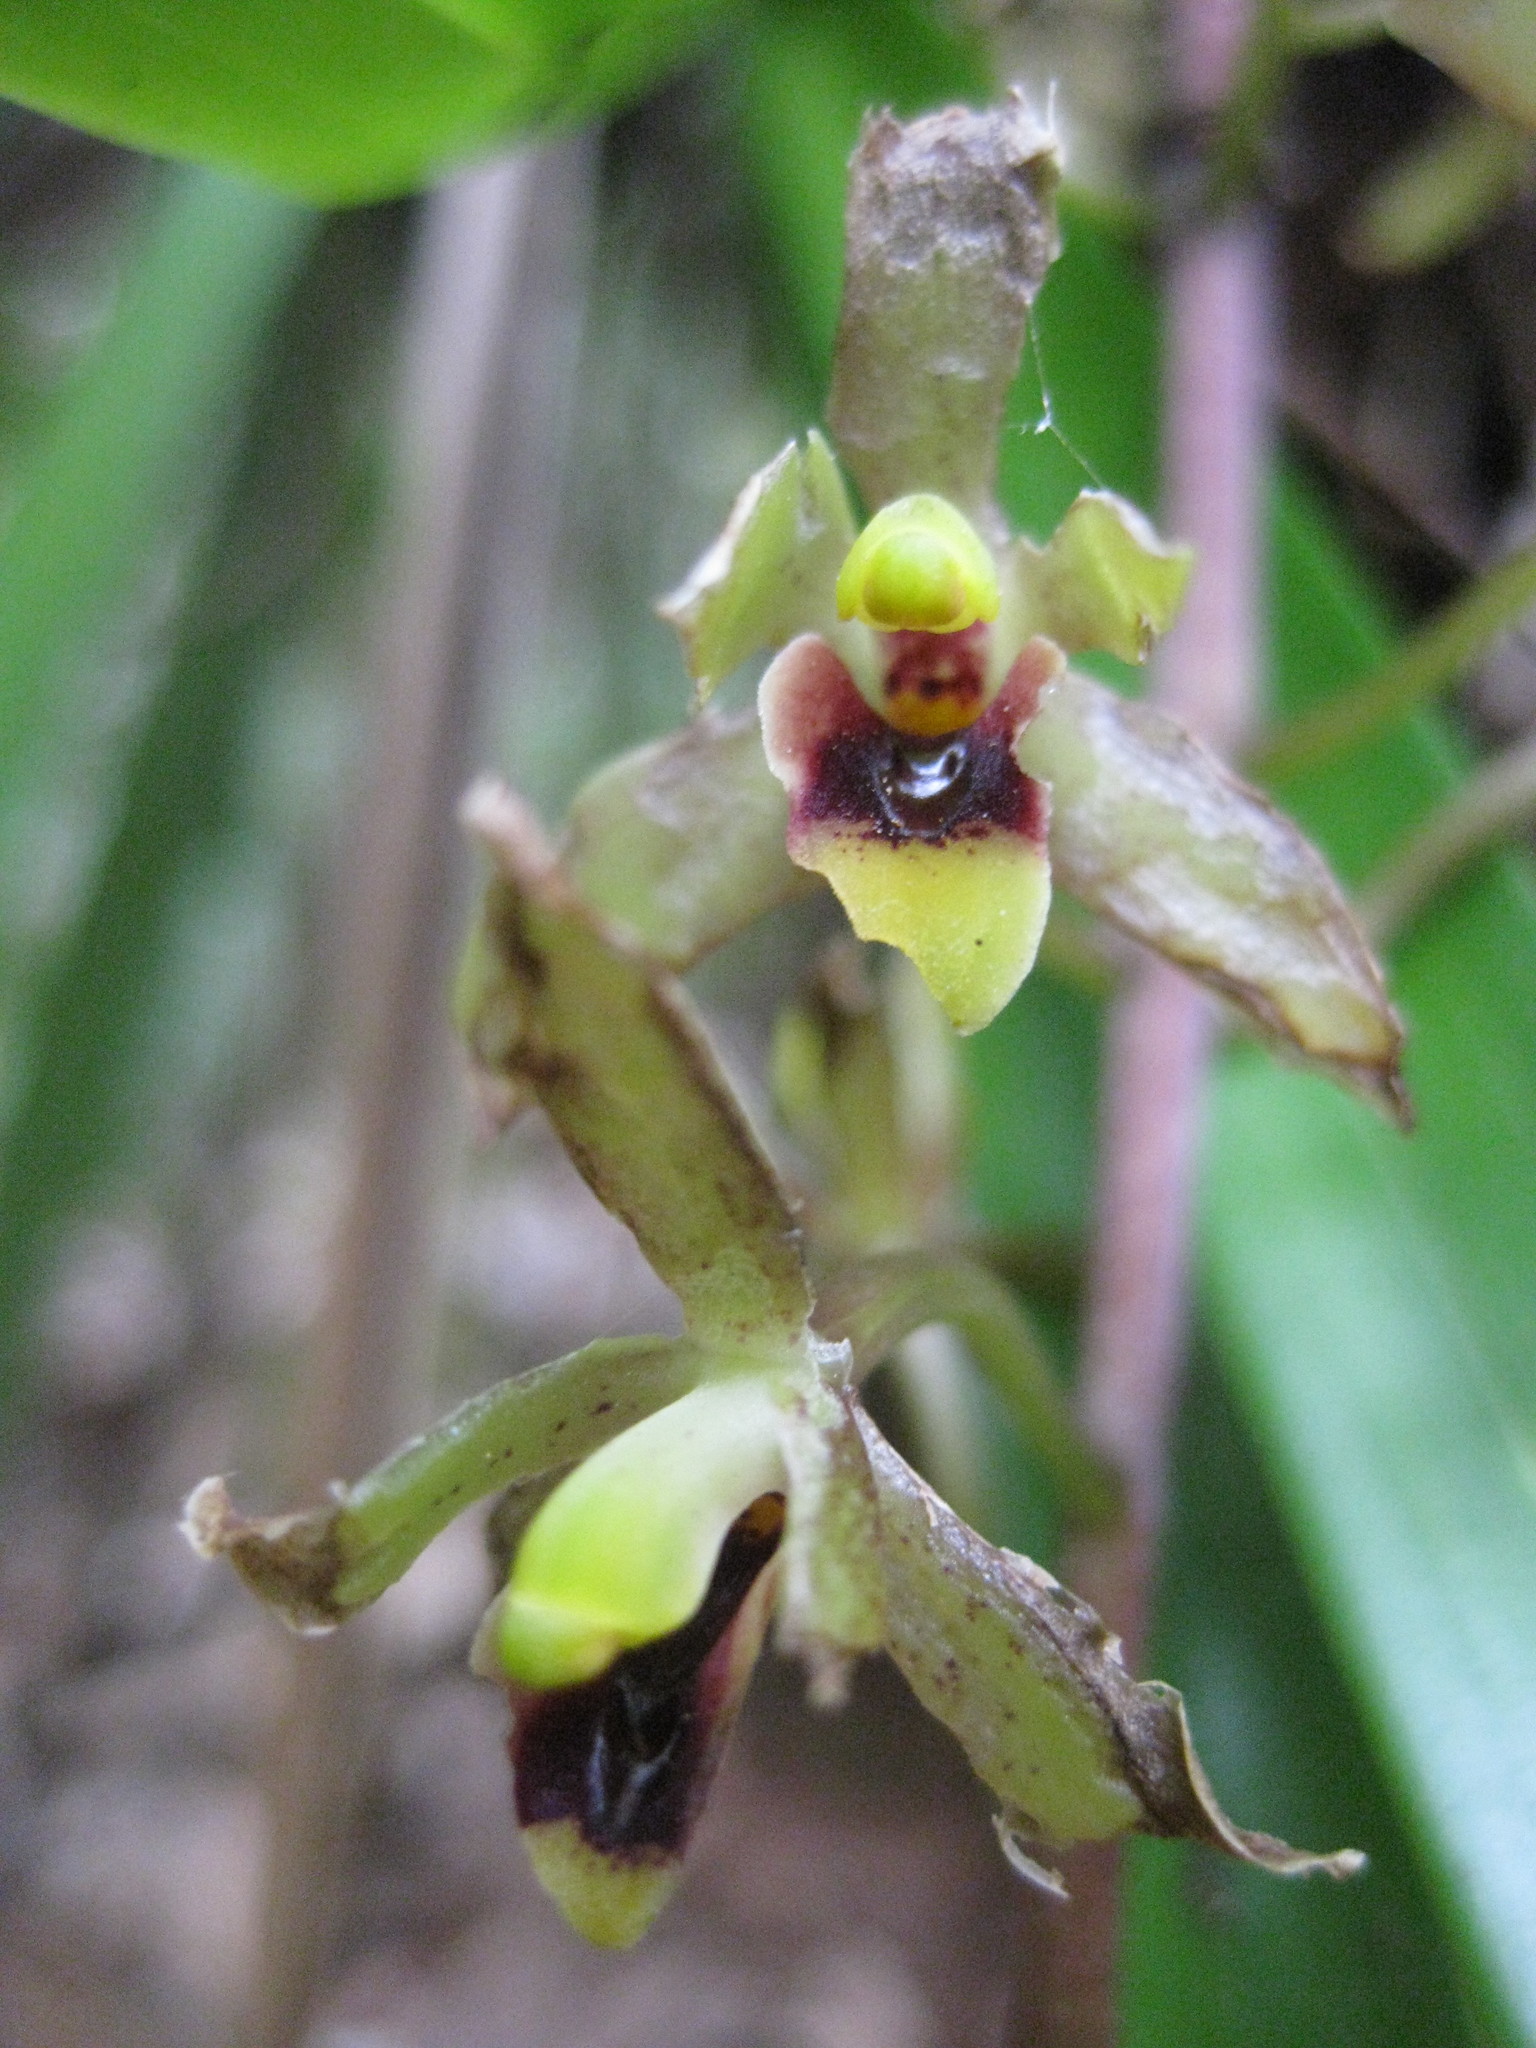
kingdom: Plantae
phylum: Tracheophyta
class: Liliopsida
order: Asparagales
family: Orchidaceae
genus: Cymbidium
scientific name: Cymbidium suave
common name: Snake orchid
